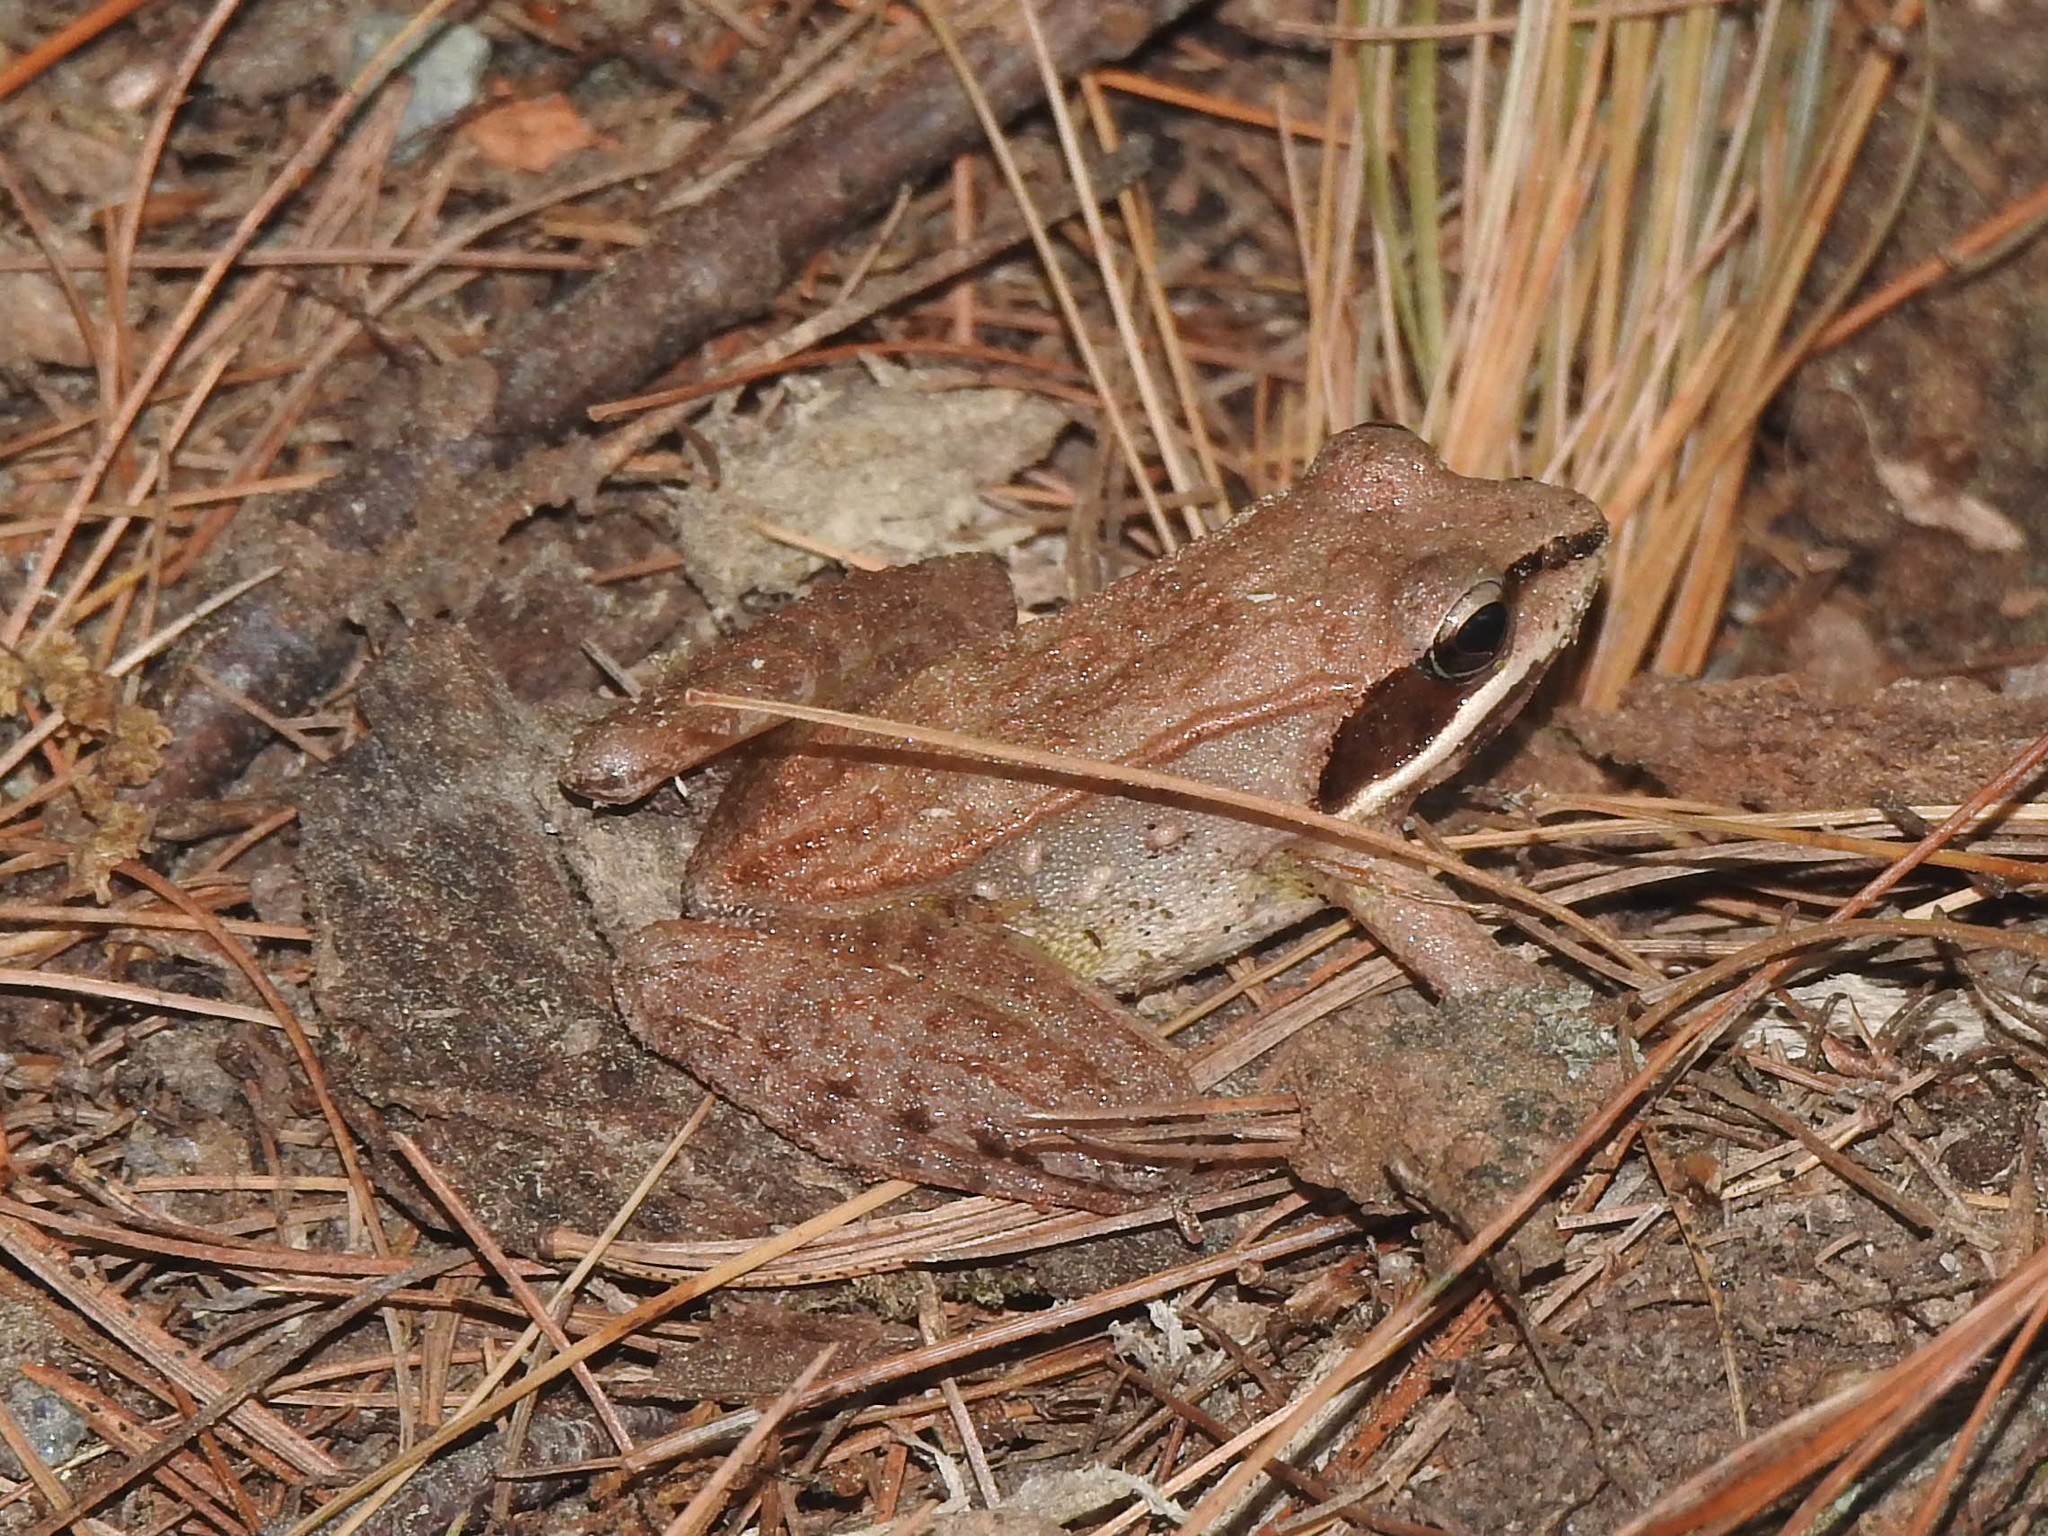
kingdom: Animalia
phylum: Chordata
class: Amphibia
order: Anura
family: Ranidae
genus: Lithobates
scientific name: Lithobates sylvaticus
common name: Wood frog
